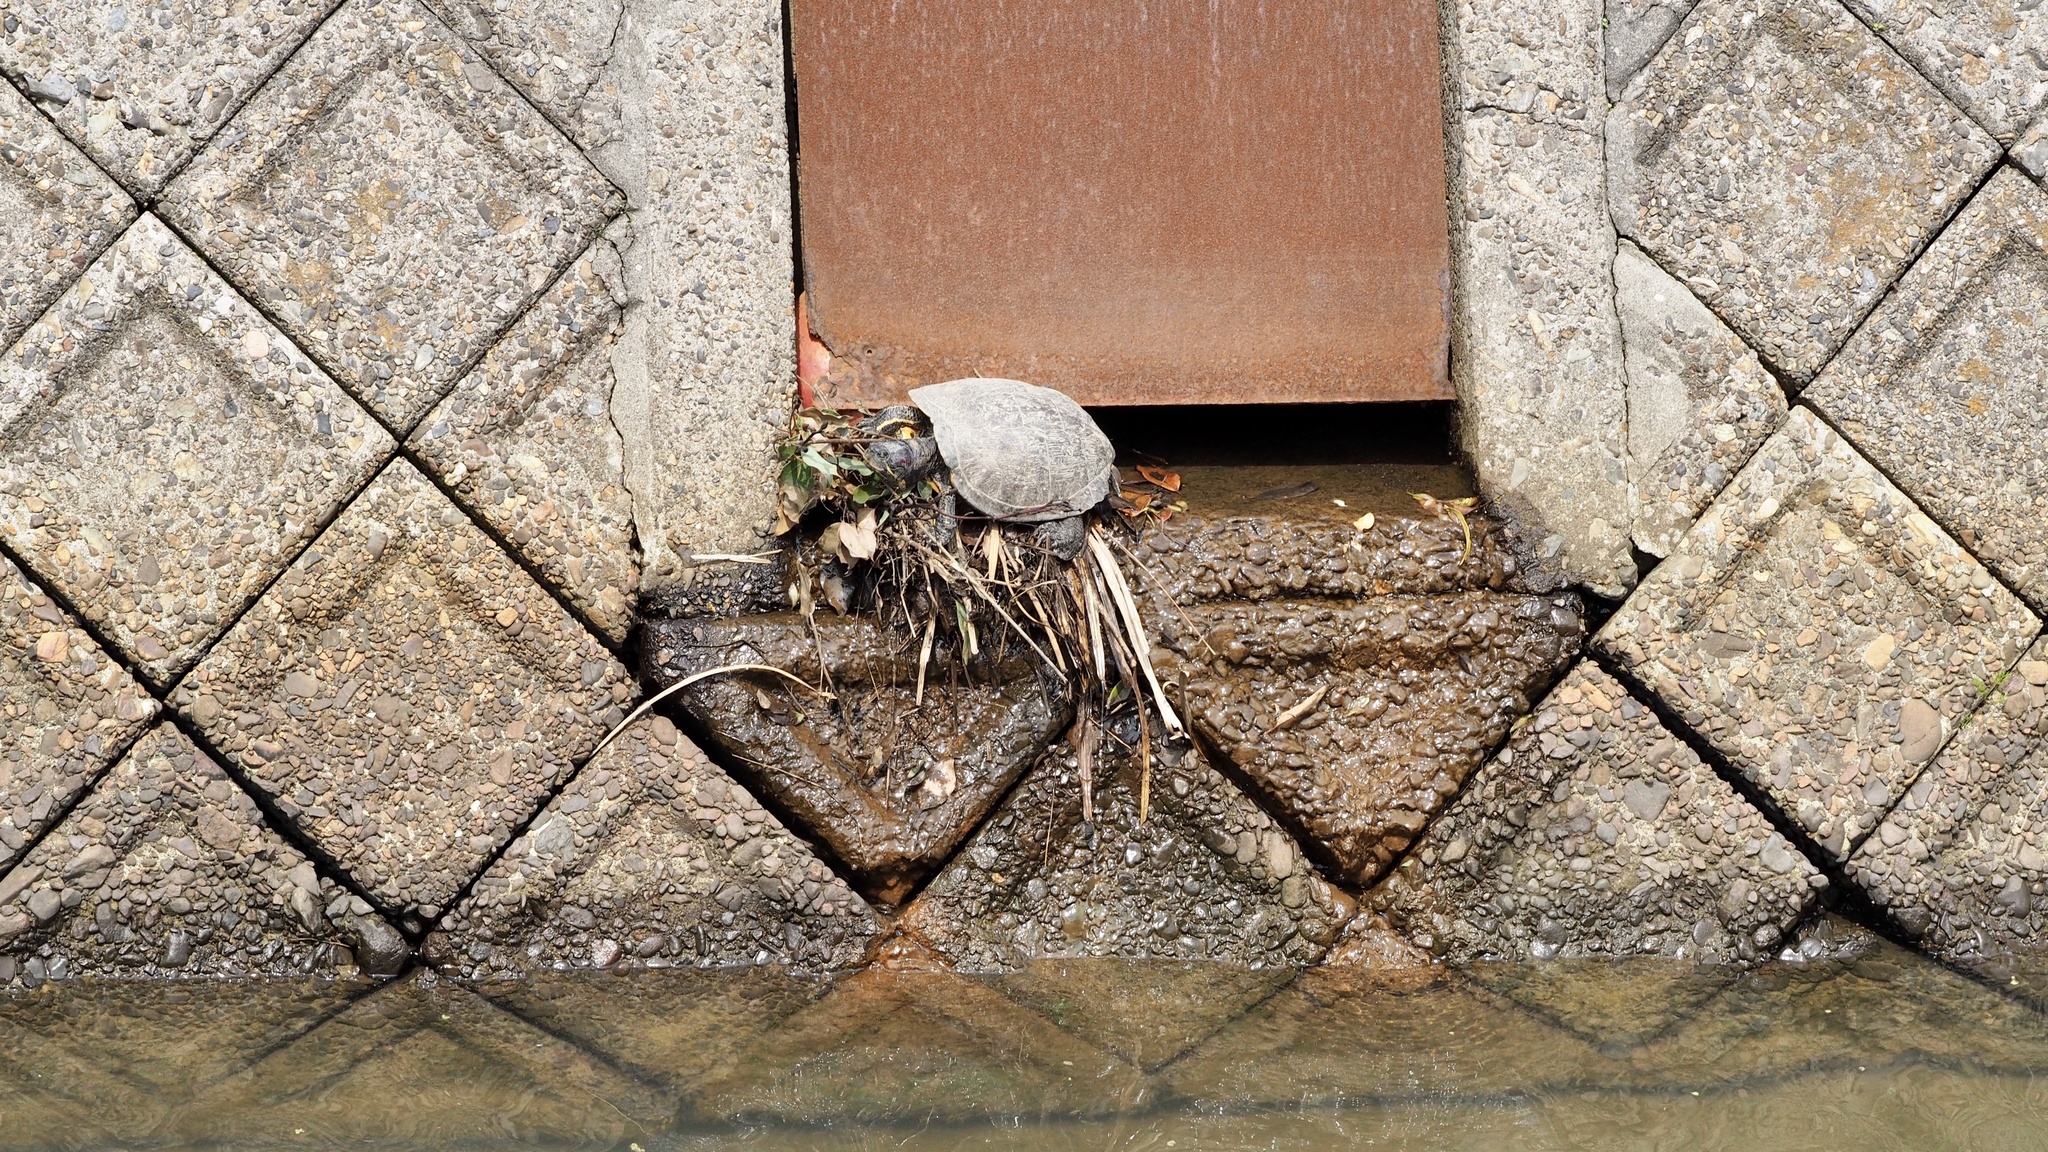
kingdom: Animalia
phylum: Chordata
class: Testudines
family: Emydidae
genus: Trachemys
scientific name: Trachemys scripta
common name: Slider
